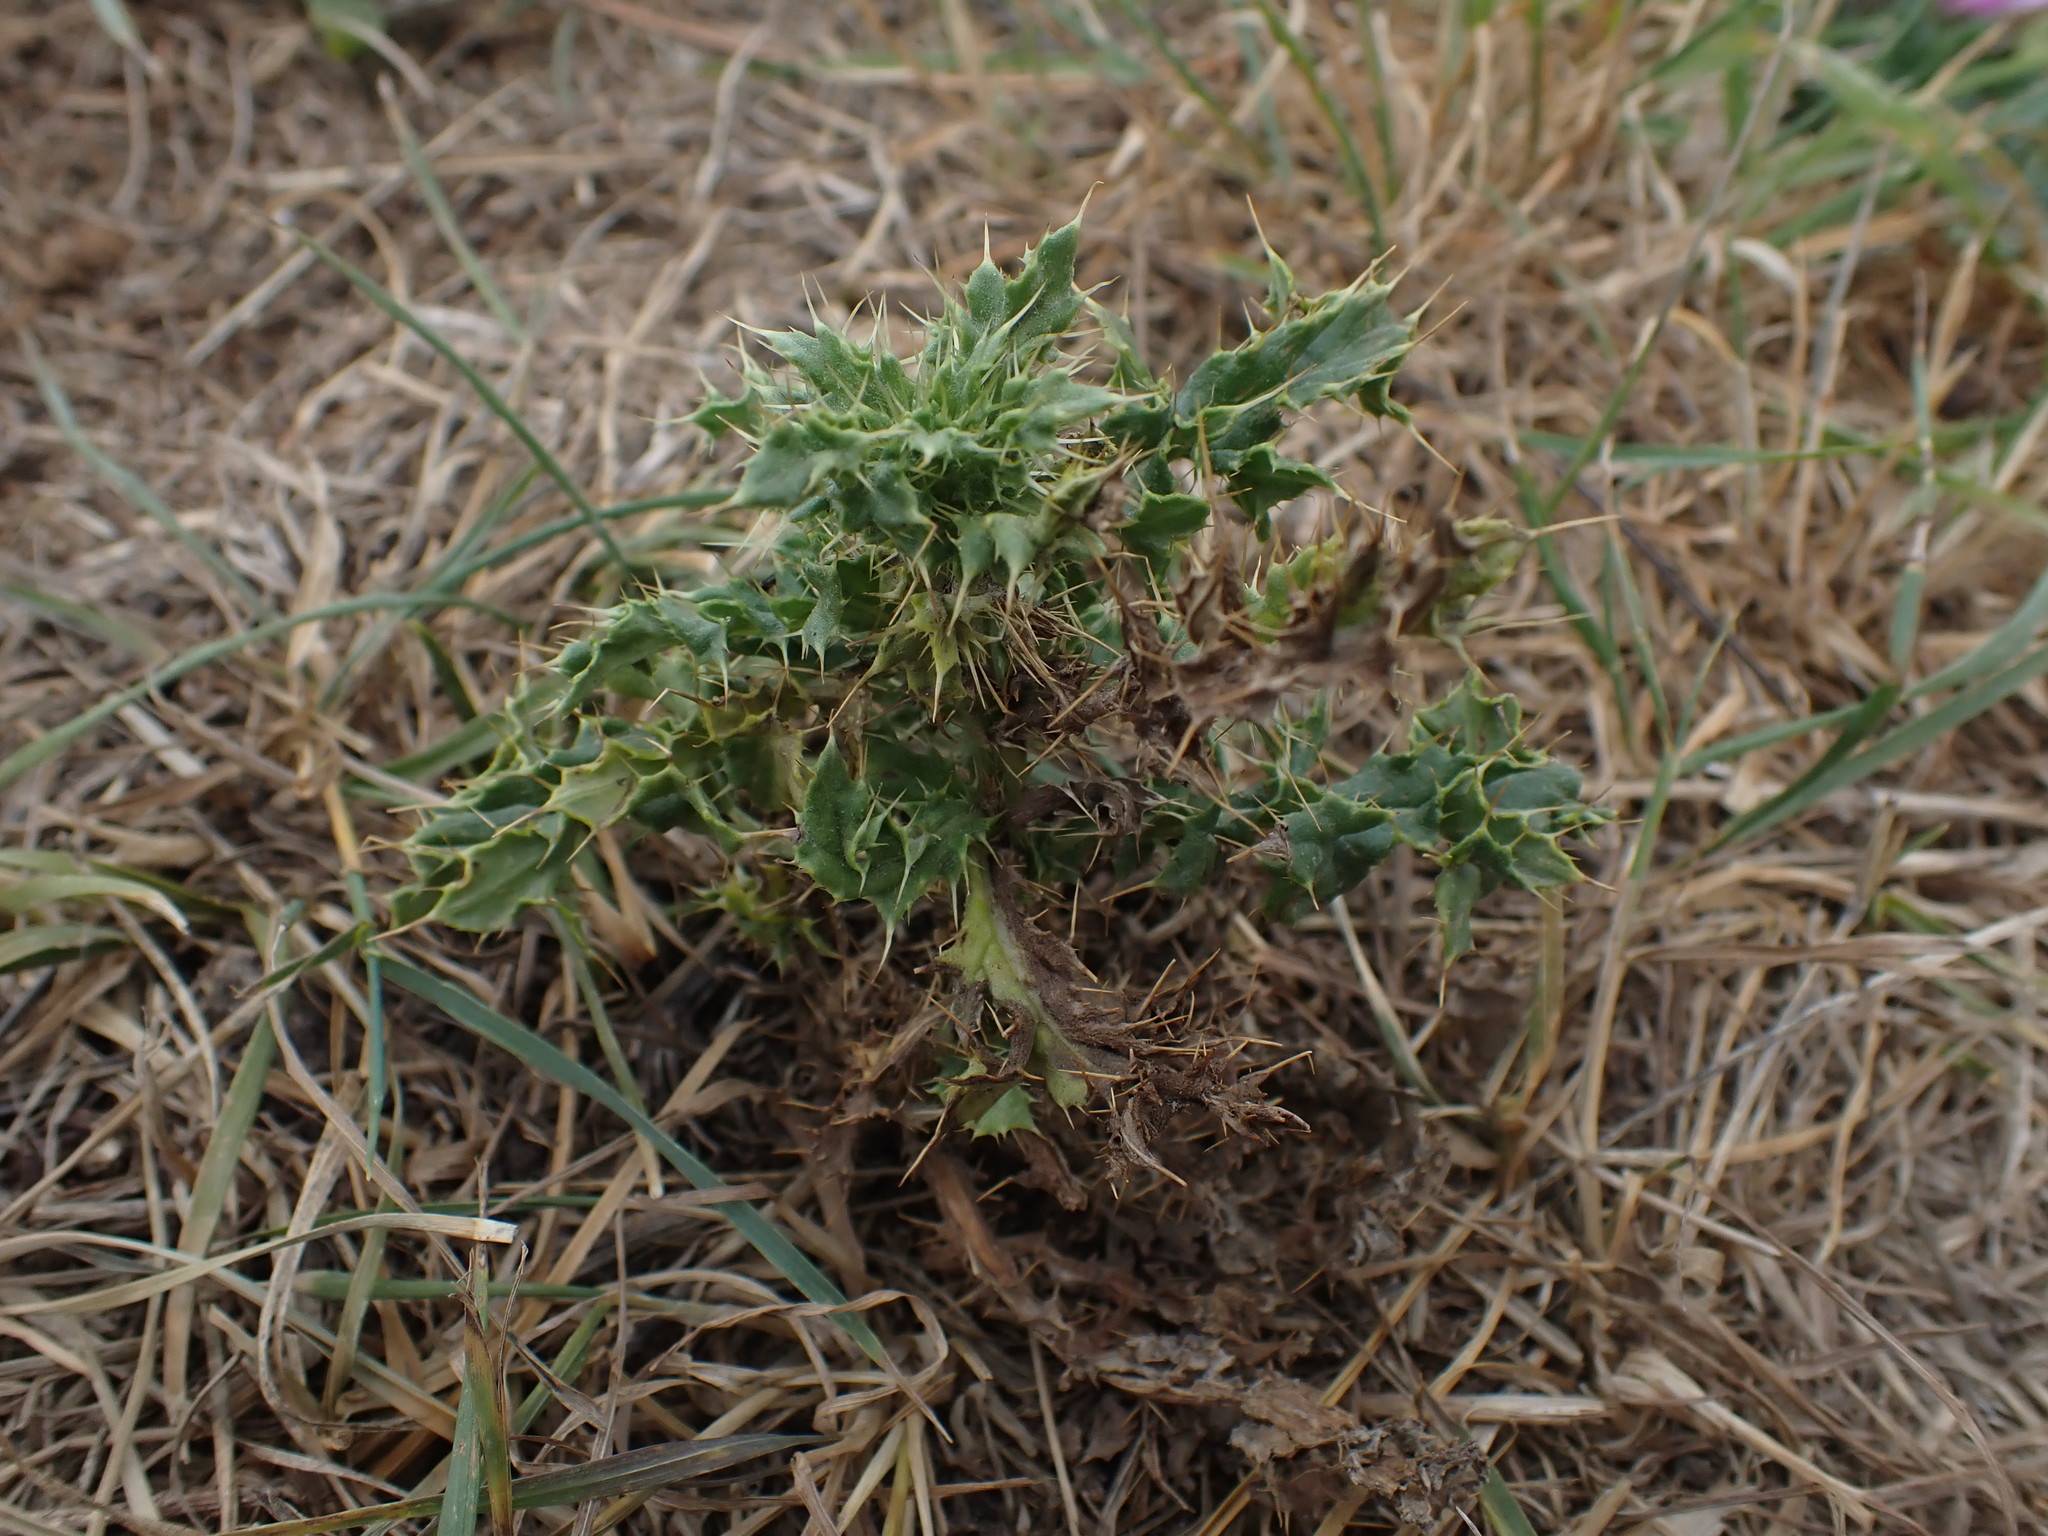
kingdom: Plantae
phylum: Tracheophyta
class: Magnoliopsida
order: Asterales
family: Asteraceae
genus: Cirsium
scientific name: Cirsium arvense
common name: Creeping thistle
